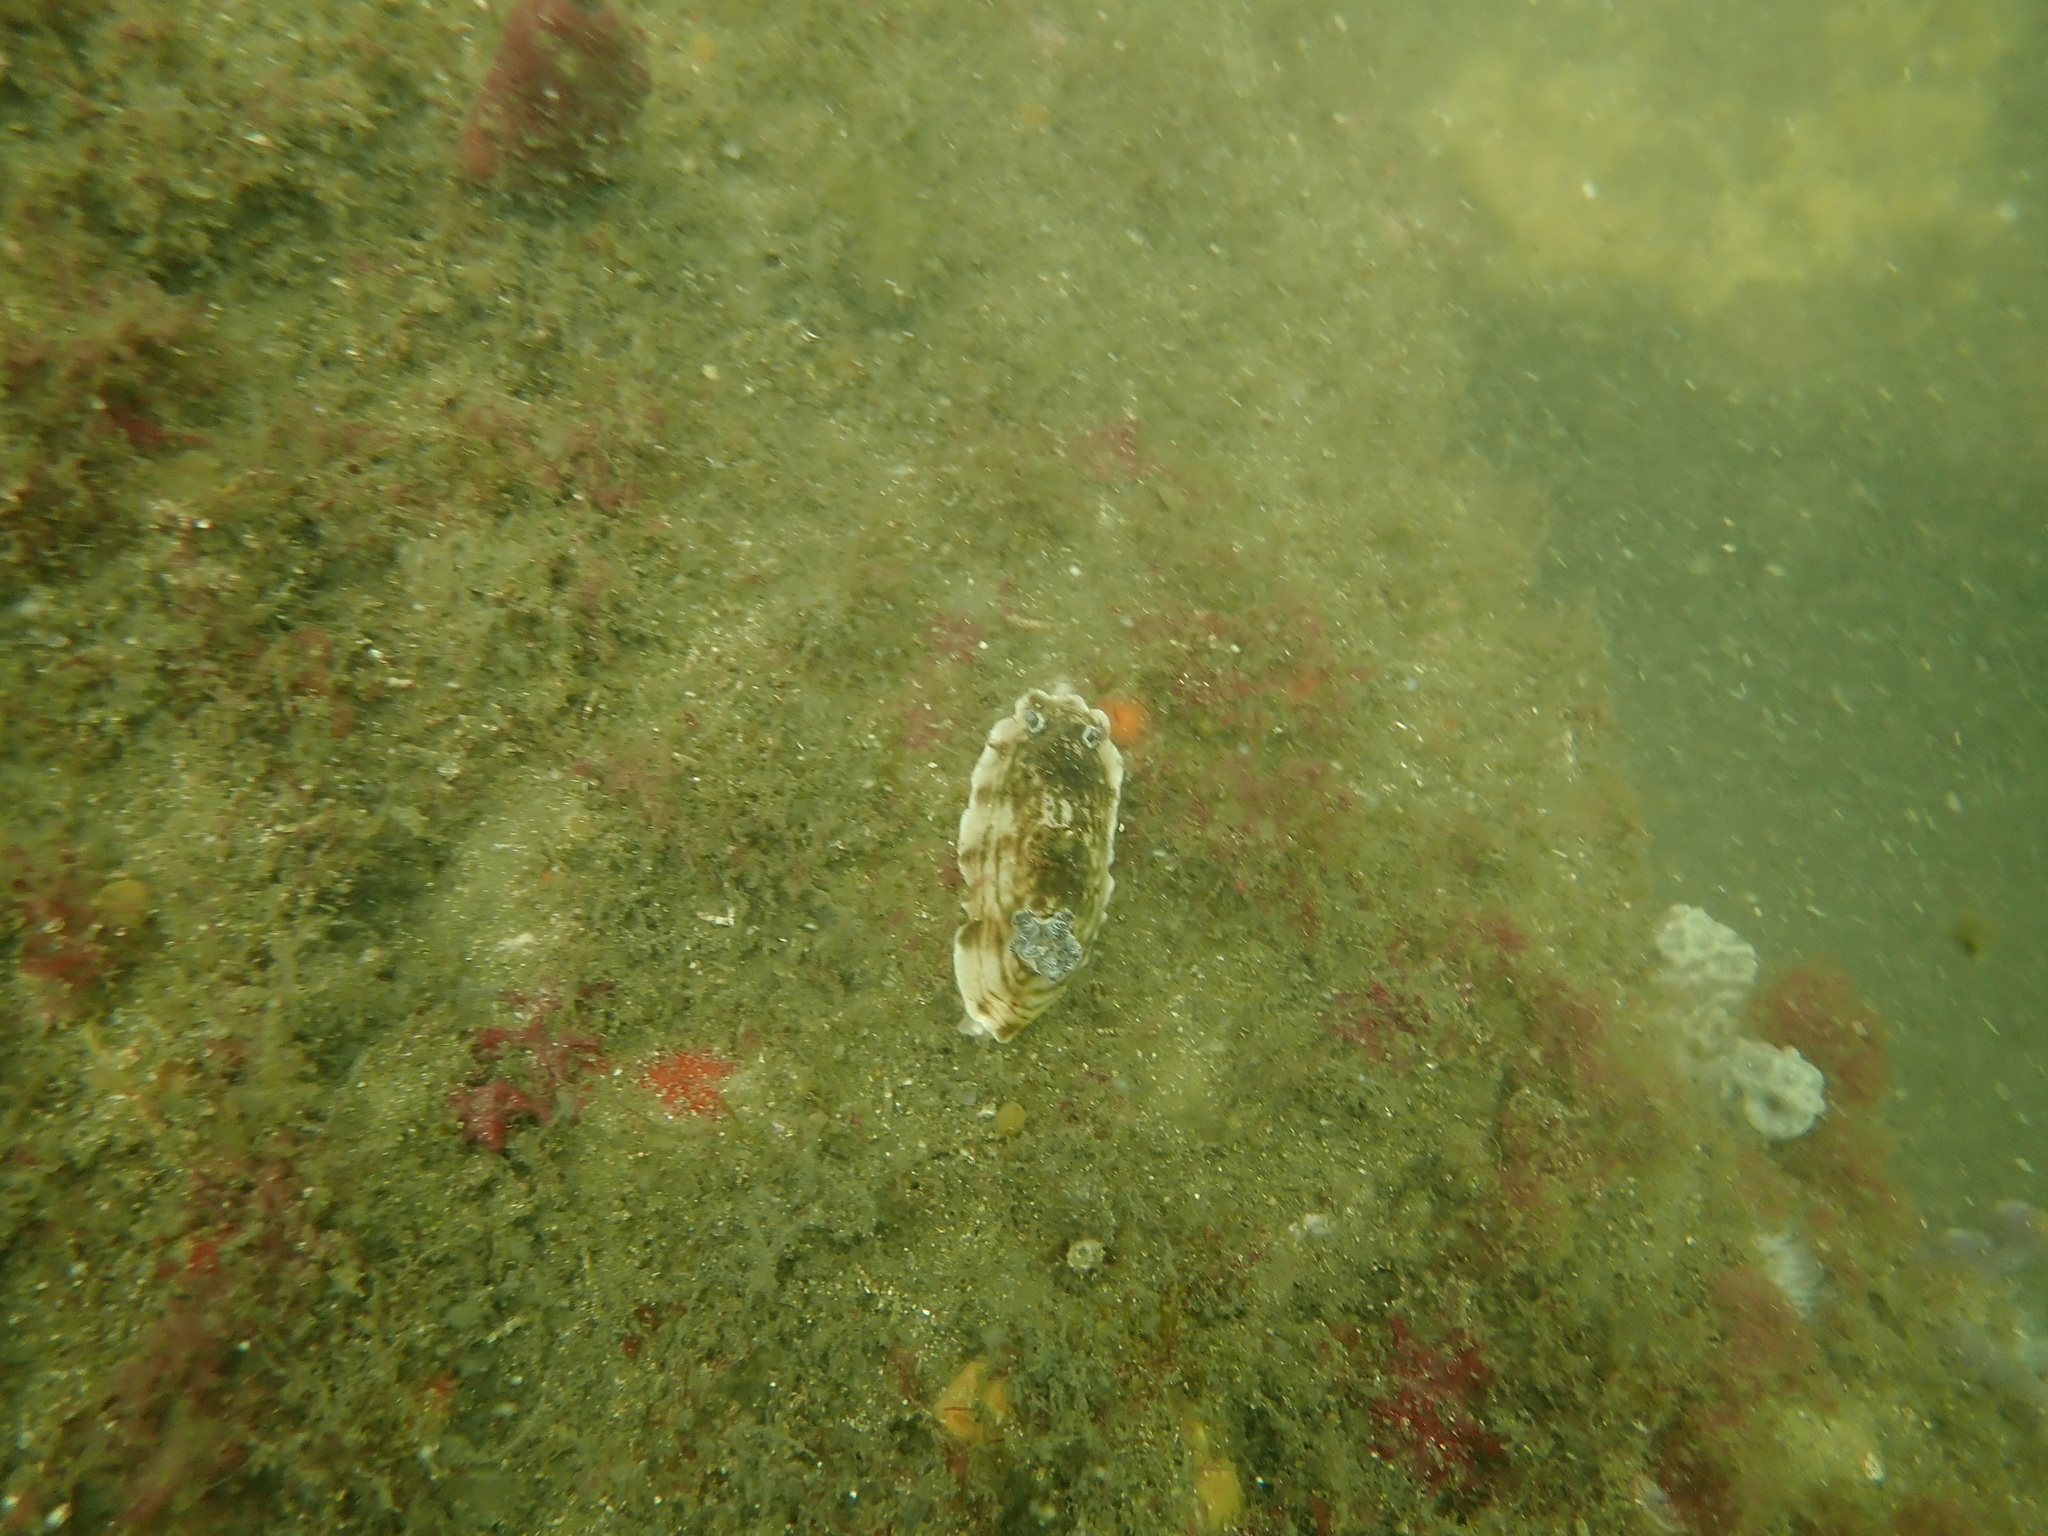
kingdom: Animalia
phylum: Mollusca
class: Gastropoda
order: Nudibranchia
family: Dorididae
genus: Aphelodoris
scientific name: Aphelodoris varia
